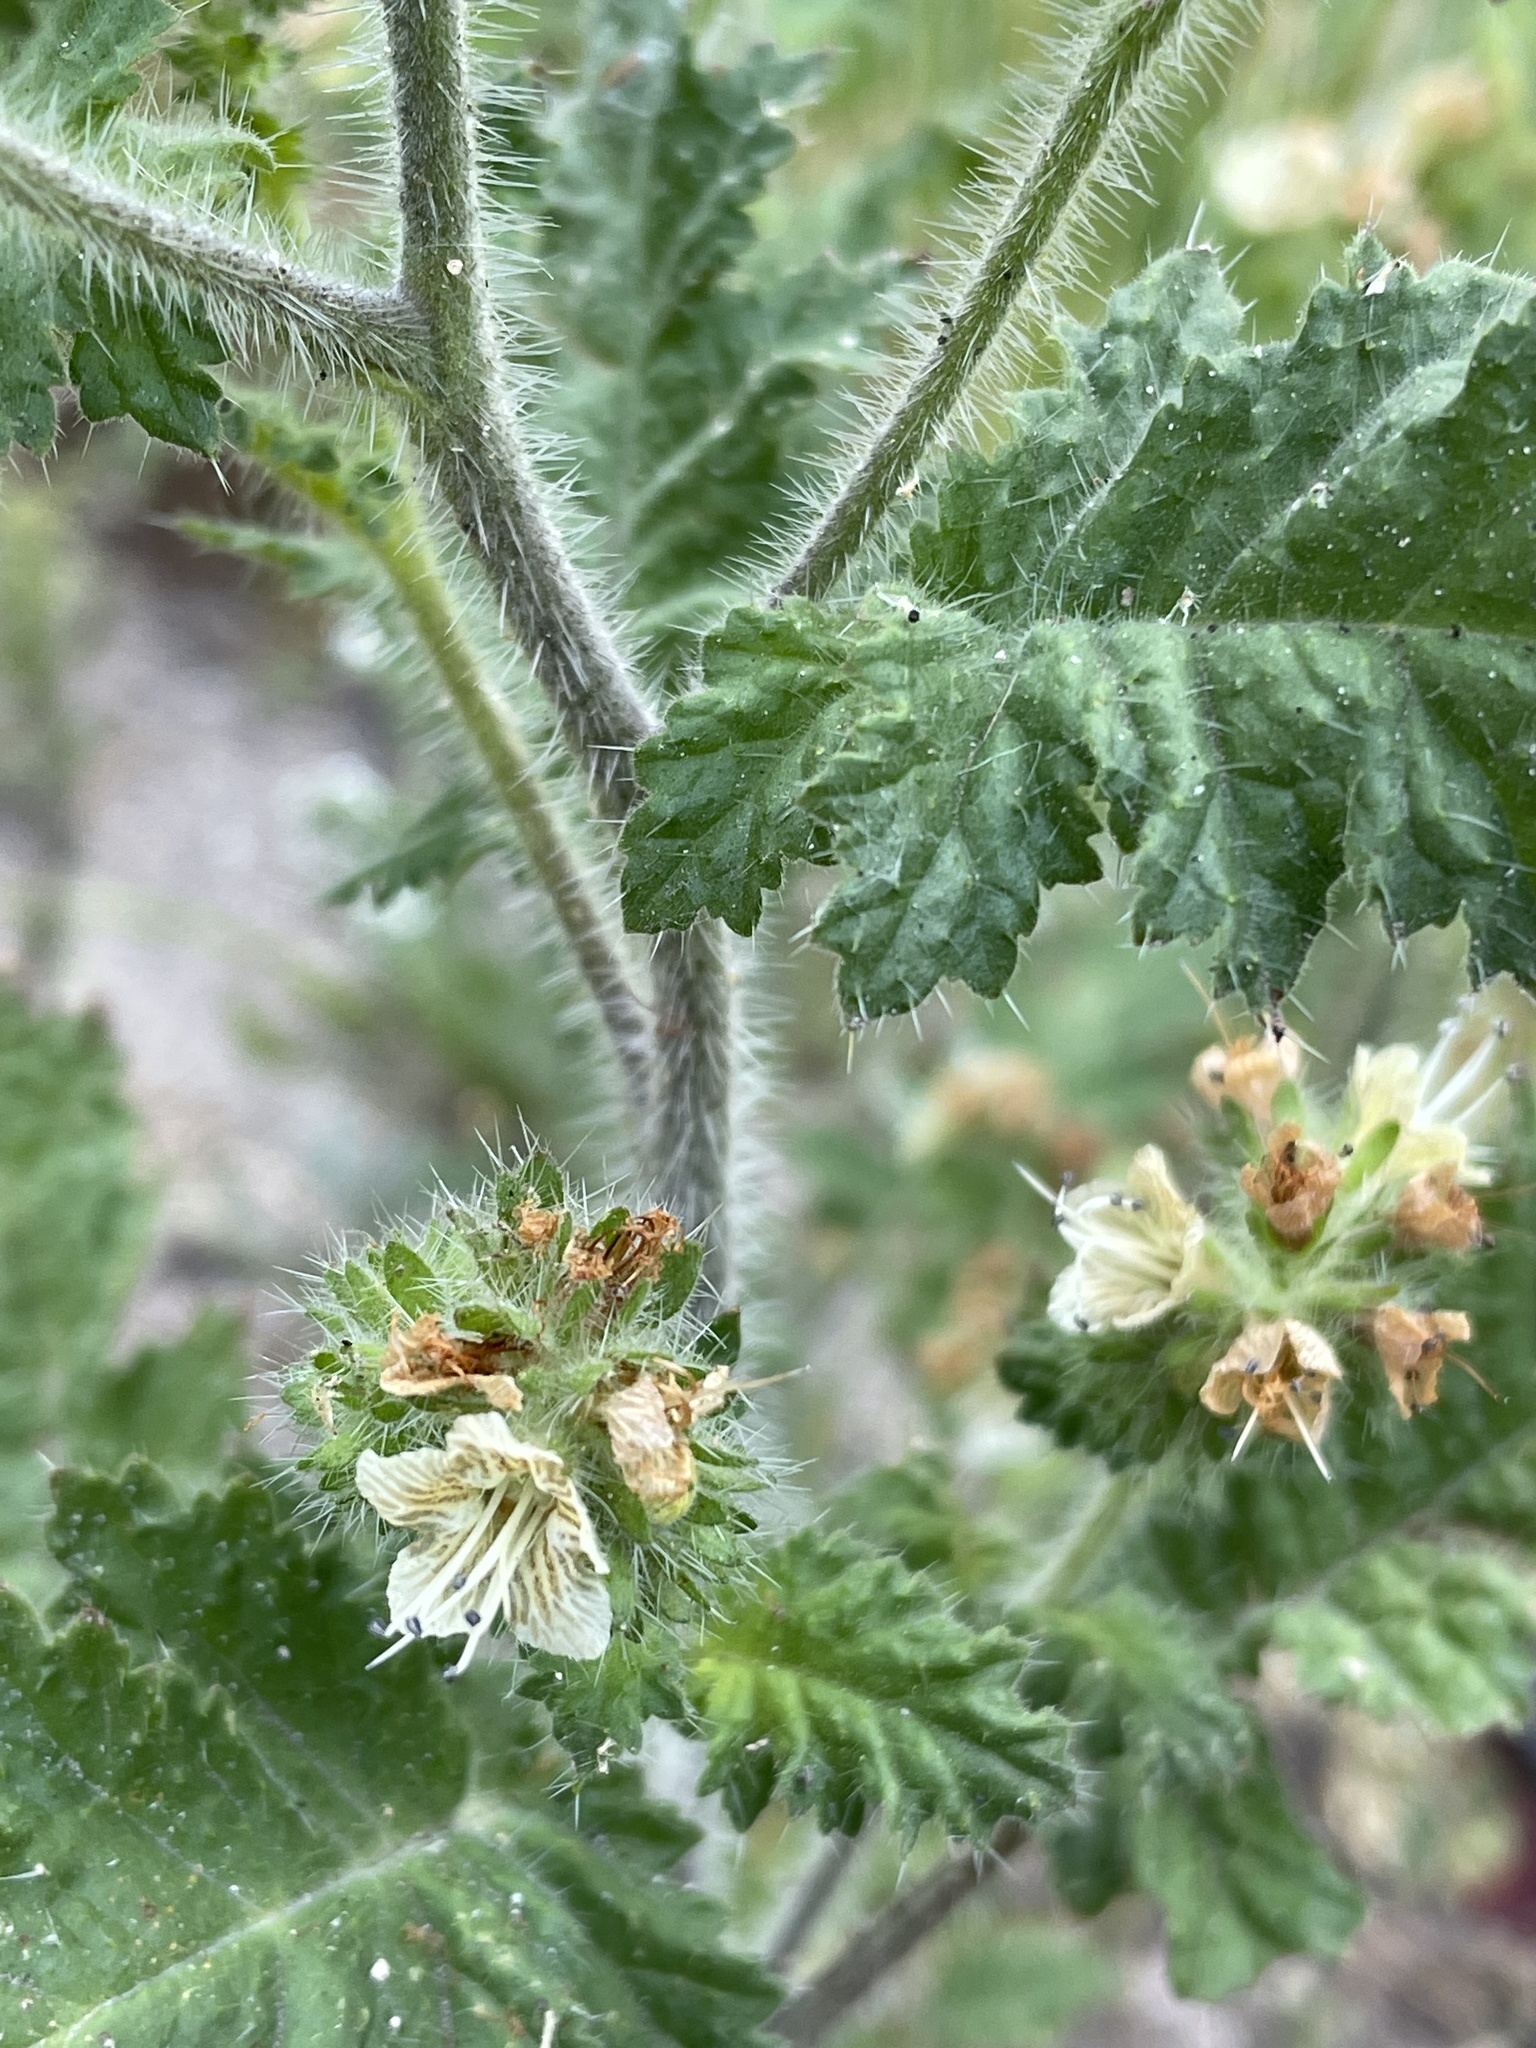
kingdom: Plantae
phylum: Tracheophyta
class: Magnoliopsida
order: Boraginales
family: Hydrophyllaceae
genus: Phacelia
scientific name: Phacelia malvifolia
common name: Mallow-leaf phacelia
